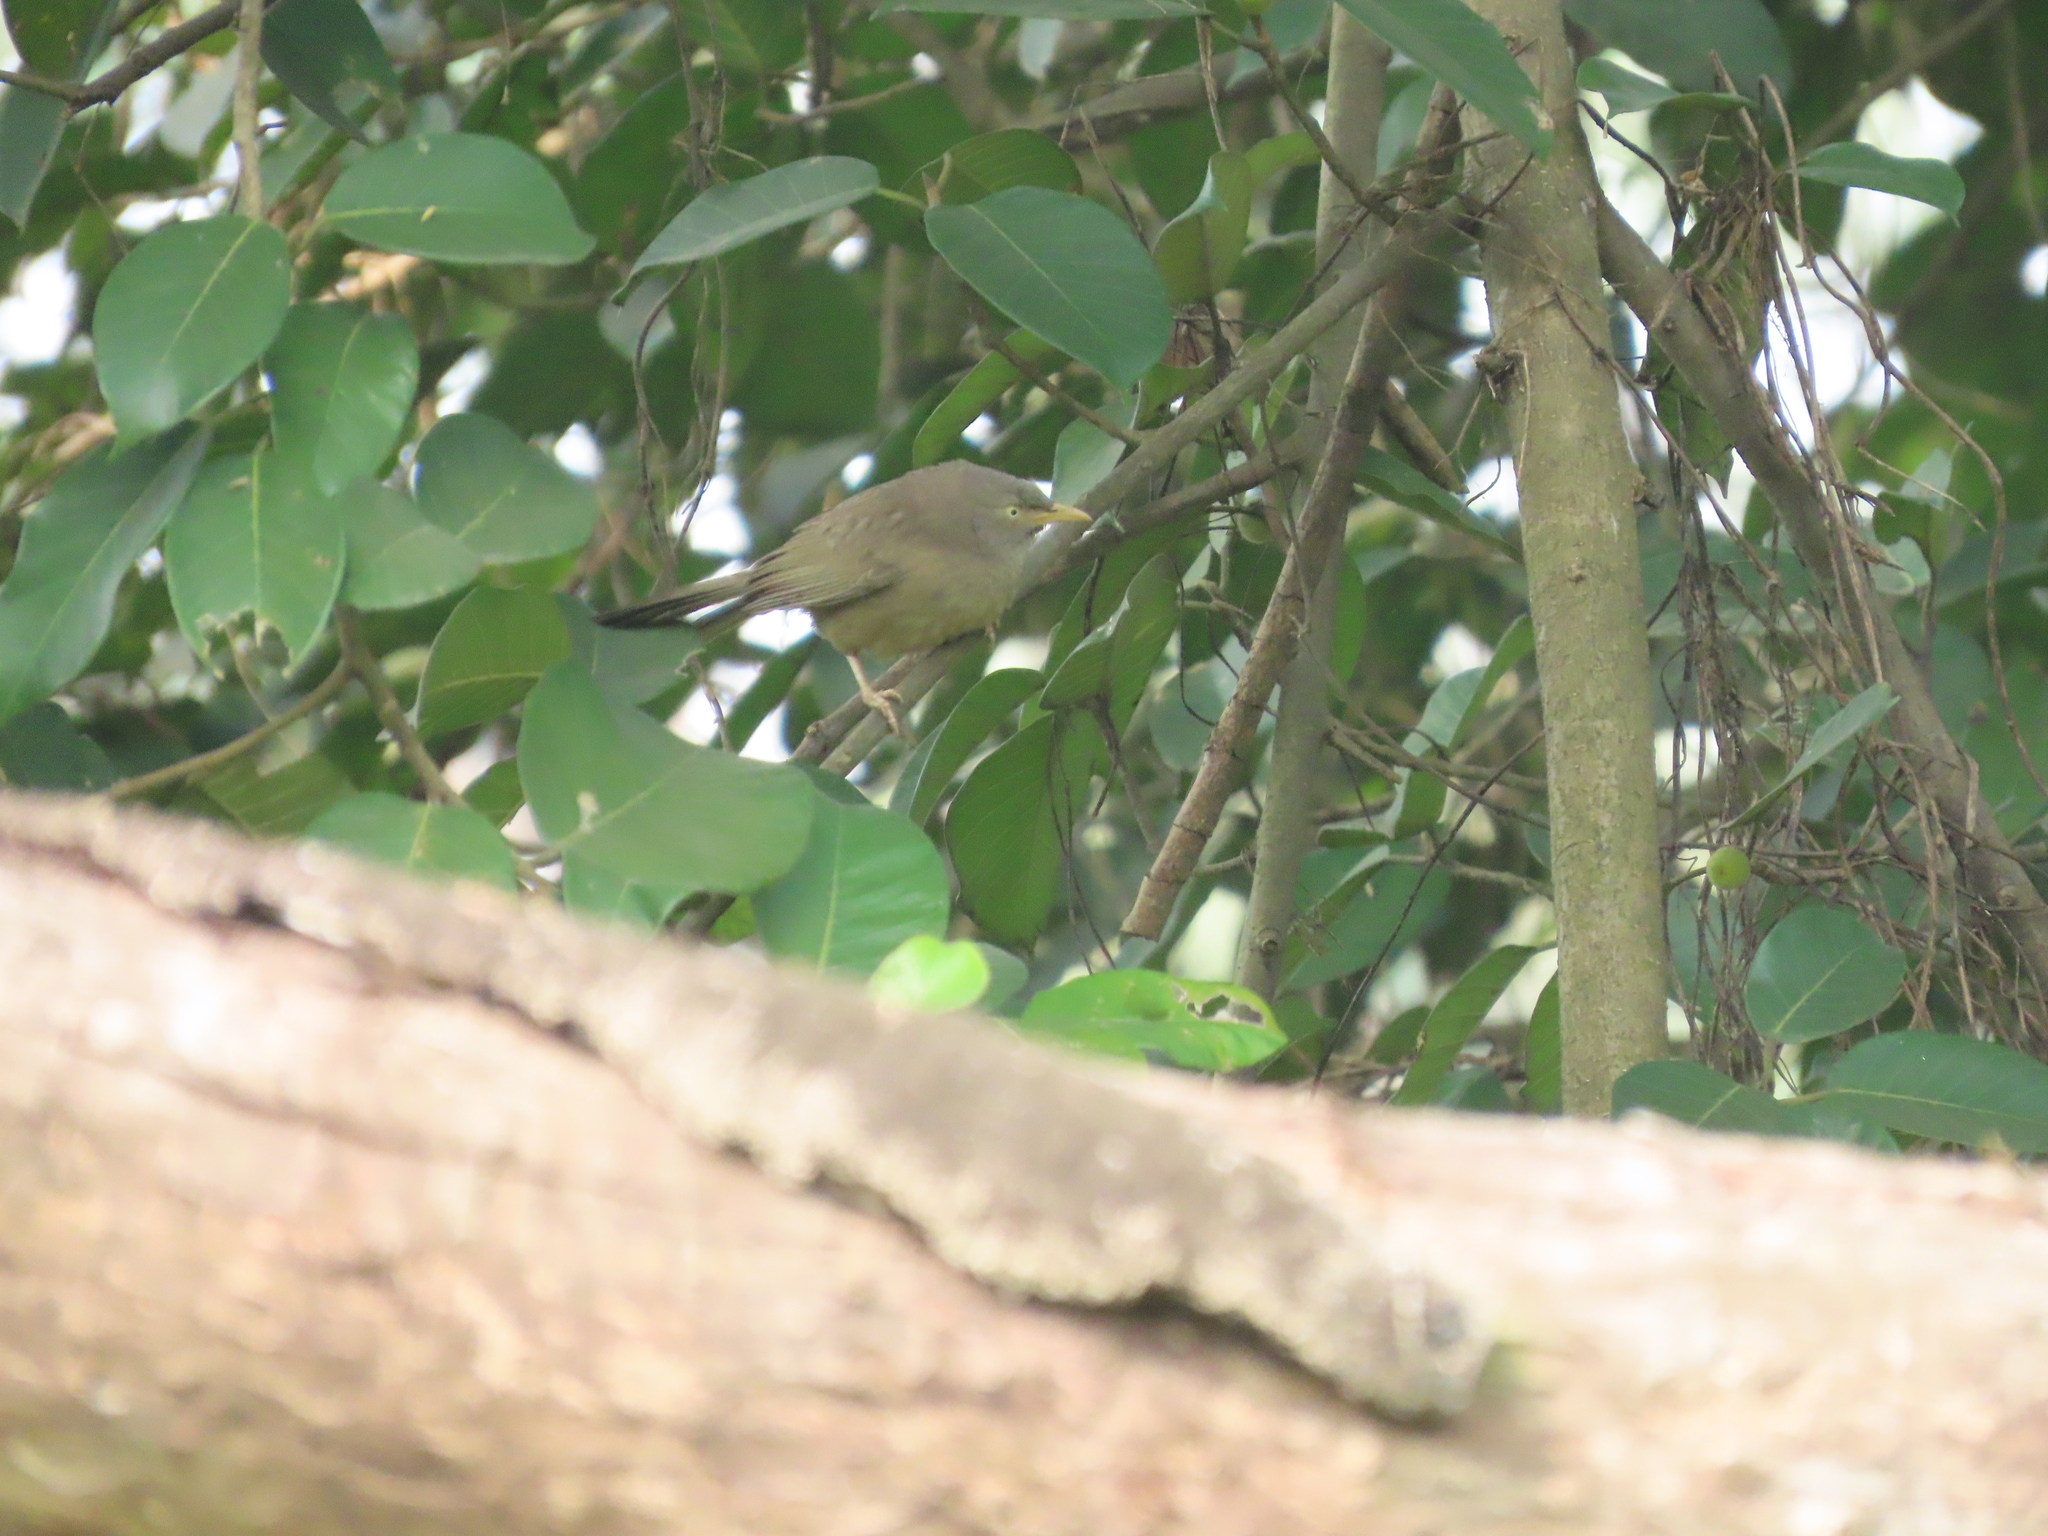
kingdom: Animalia
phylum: Chordata
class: Aves
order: Passeriformes
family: Leiothrichidae
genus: Turdoides
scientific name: Turdoides striata
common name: Jungle babbler
